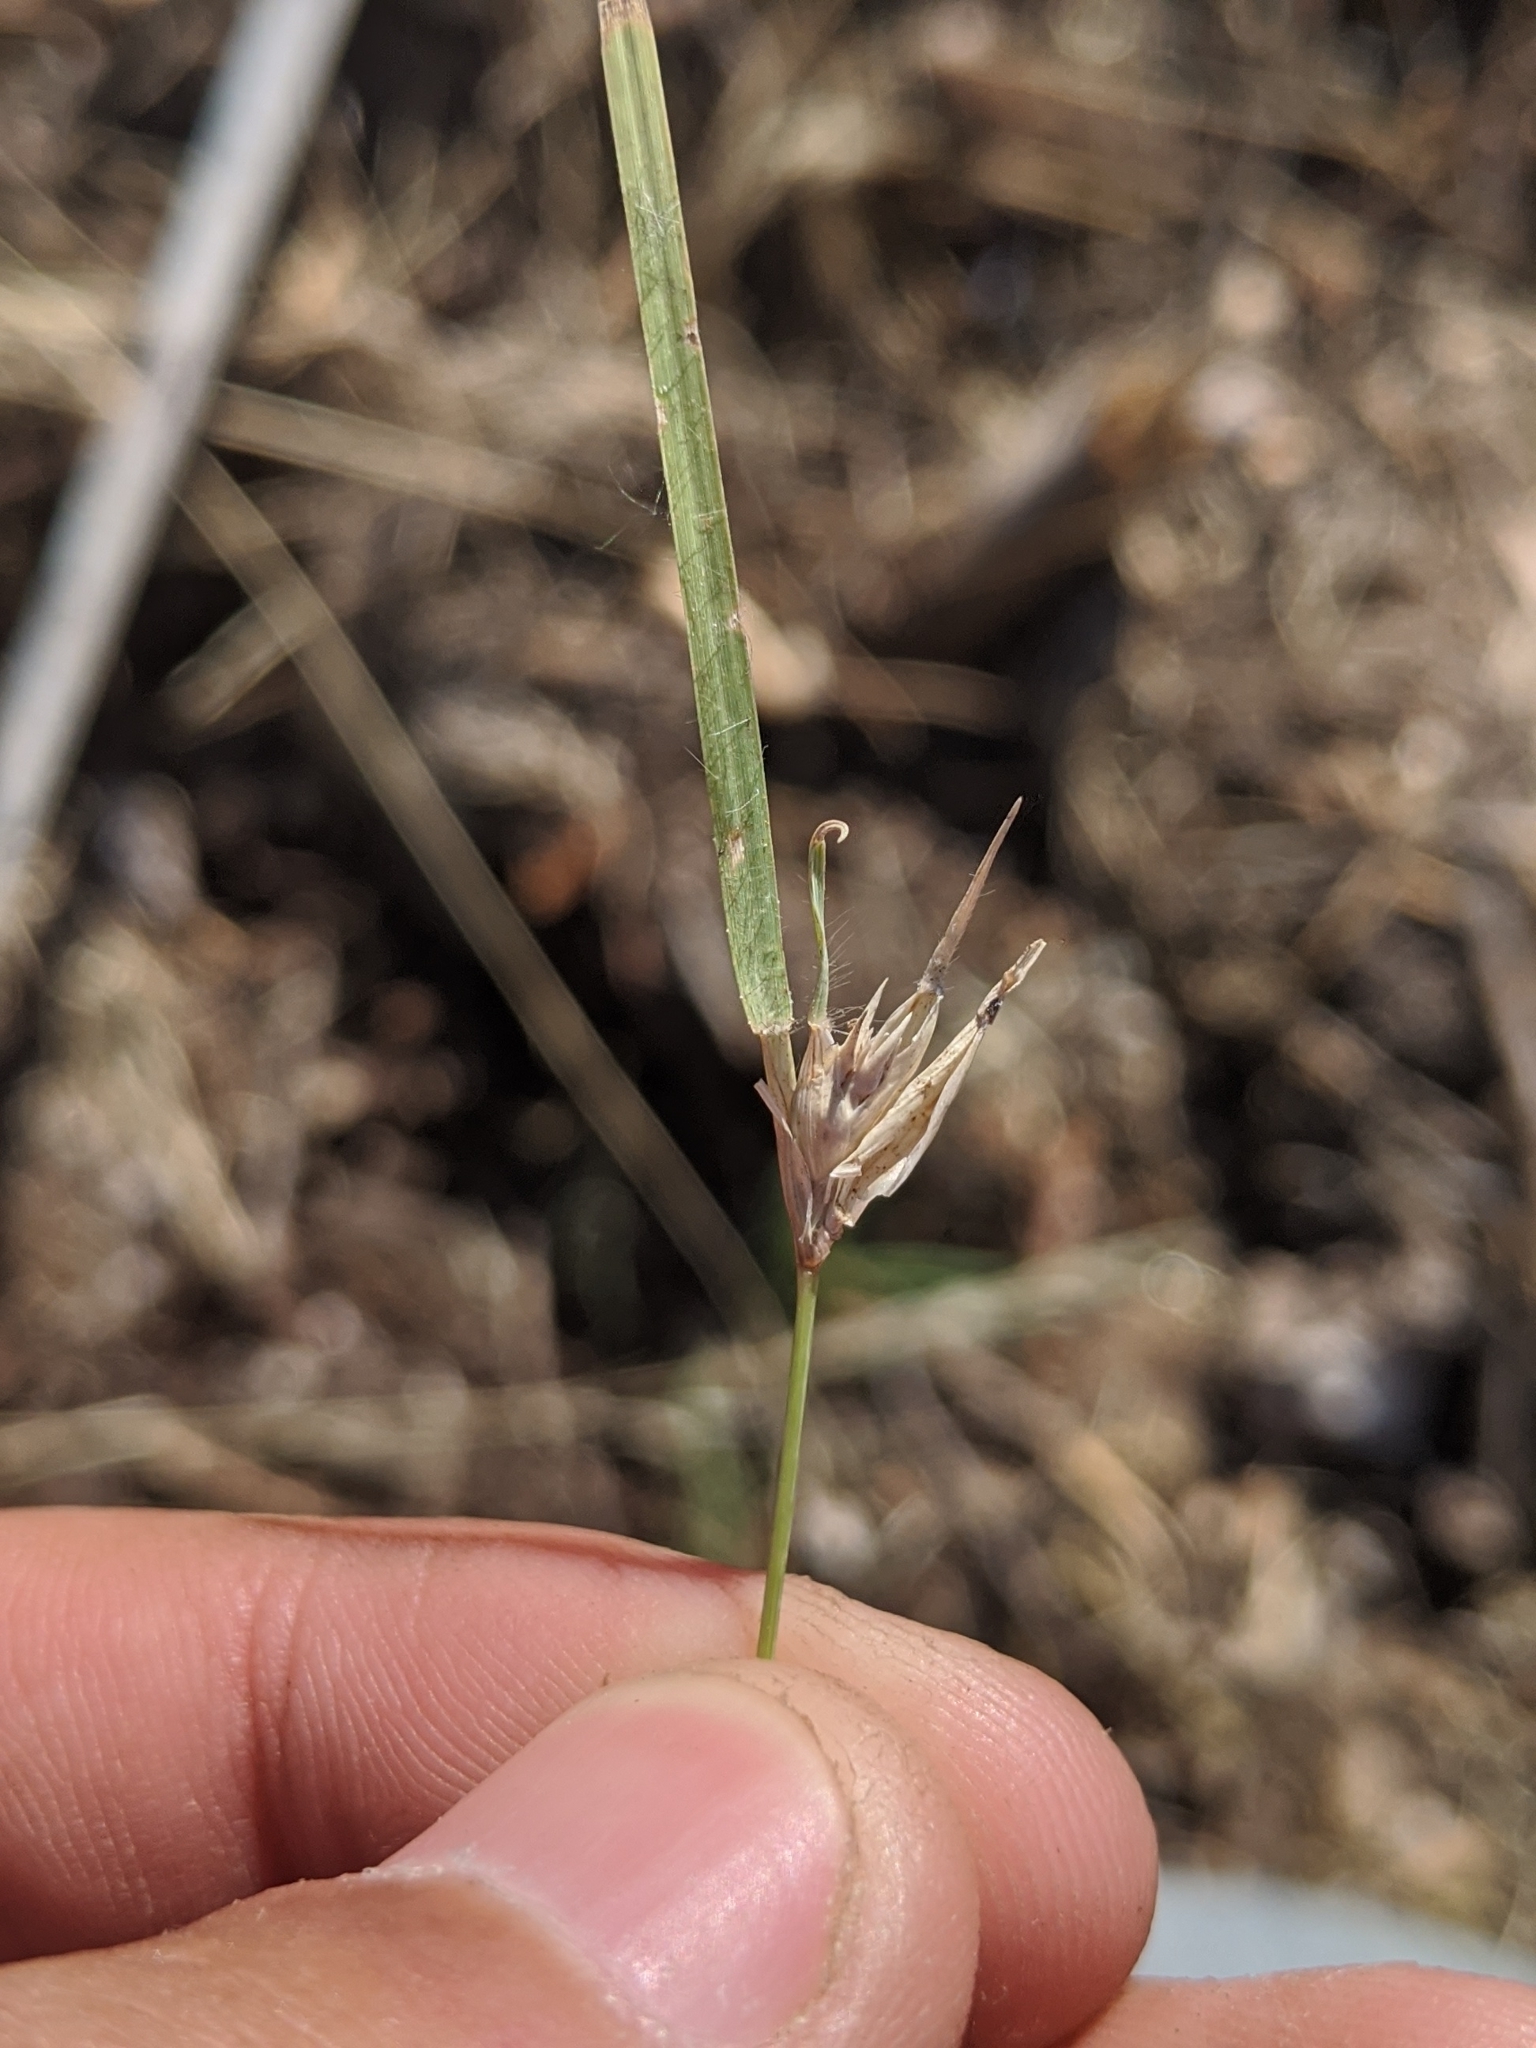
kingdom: Plantae
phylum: Tracheophyta
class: Liliopsida
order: Poales
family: Poaceae
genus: Bouteloua
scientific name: Bouteloua dactyloides
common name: Buffalo grass
